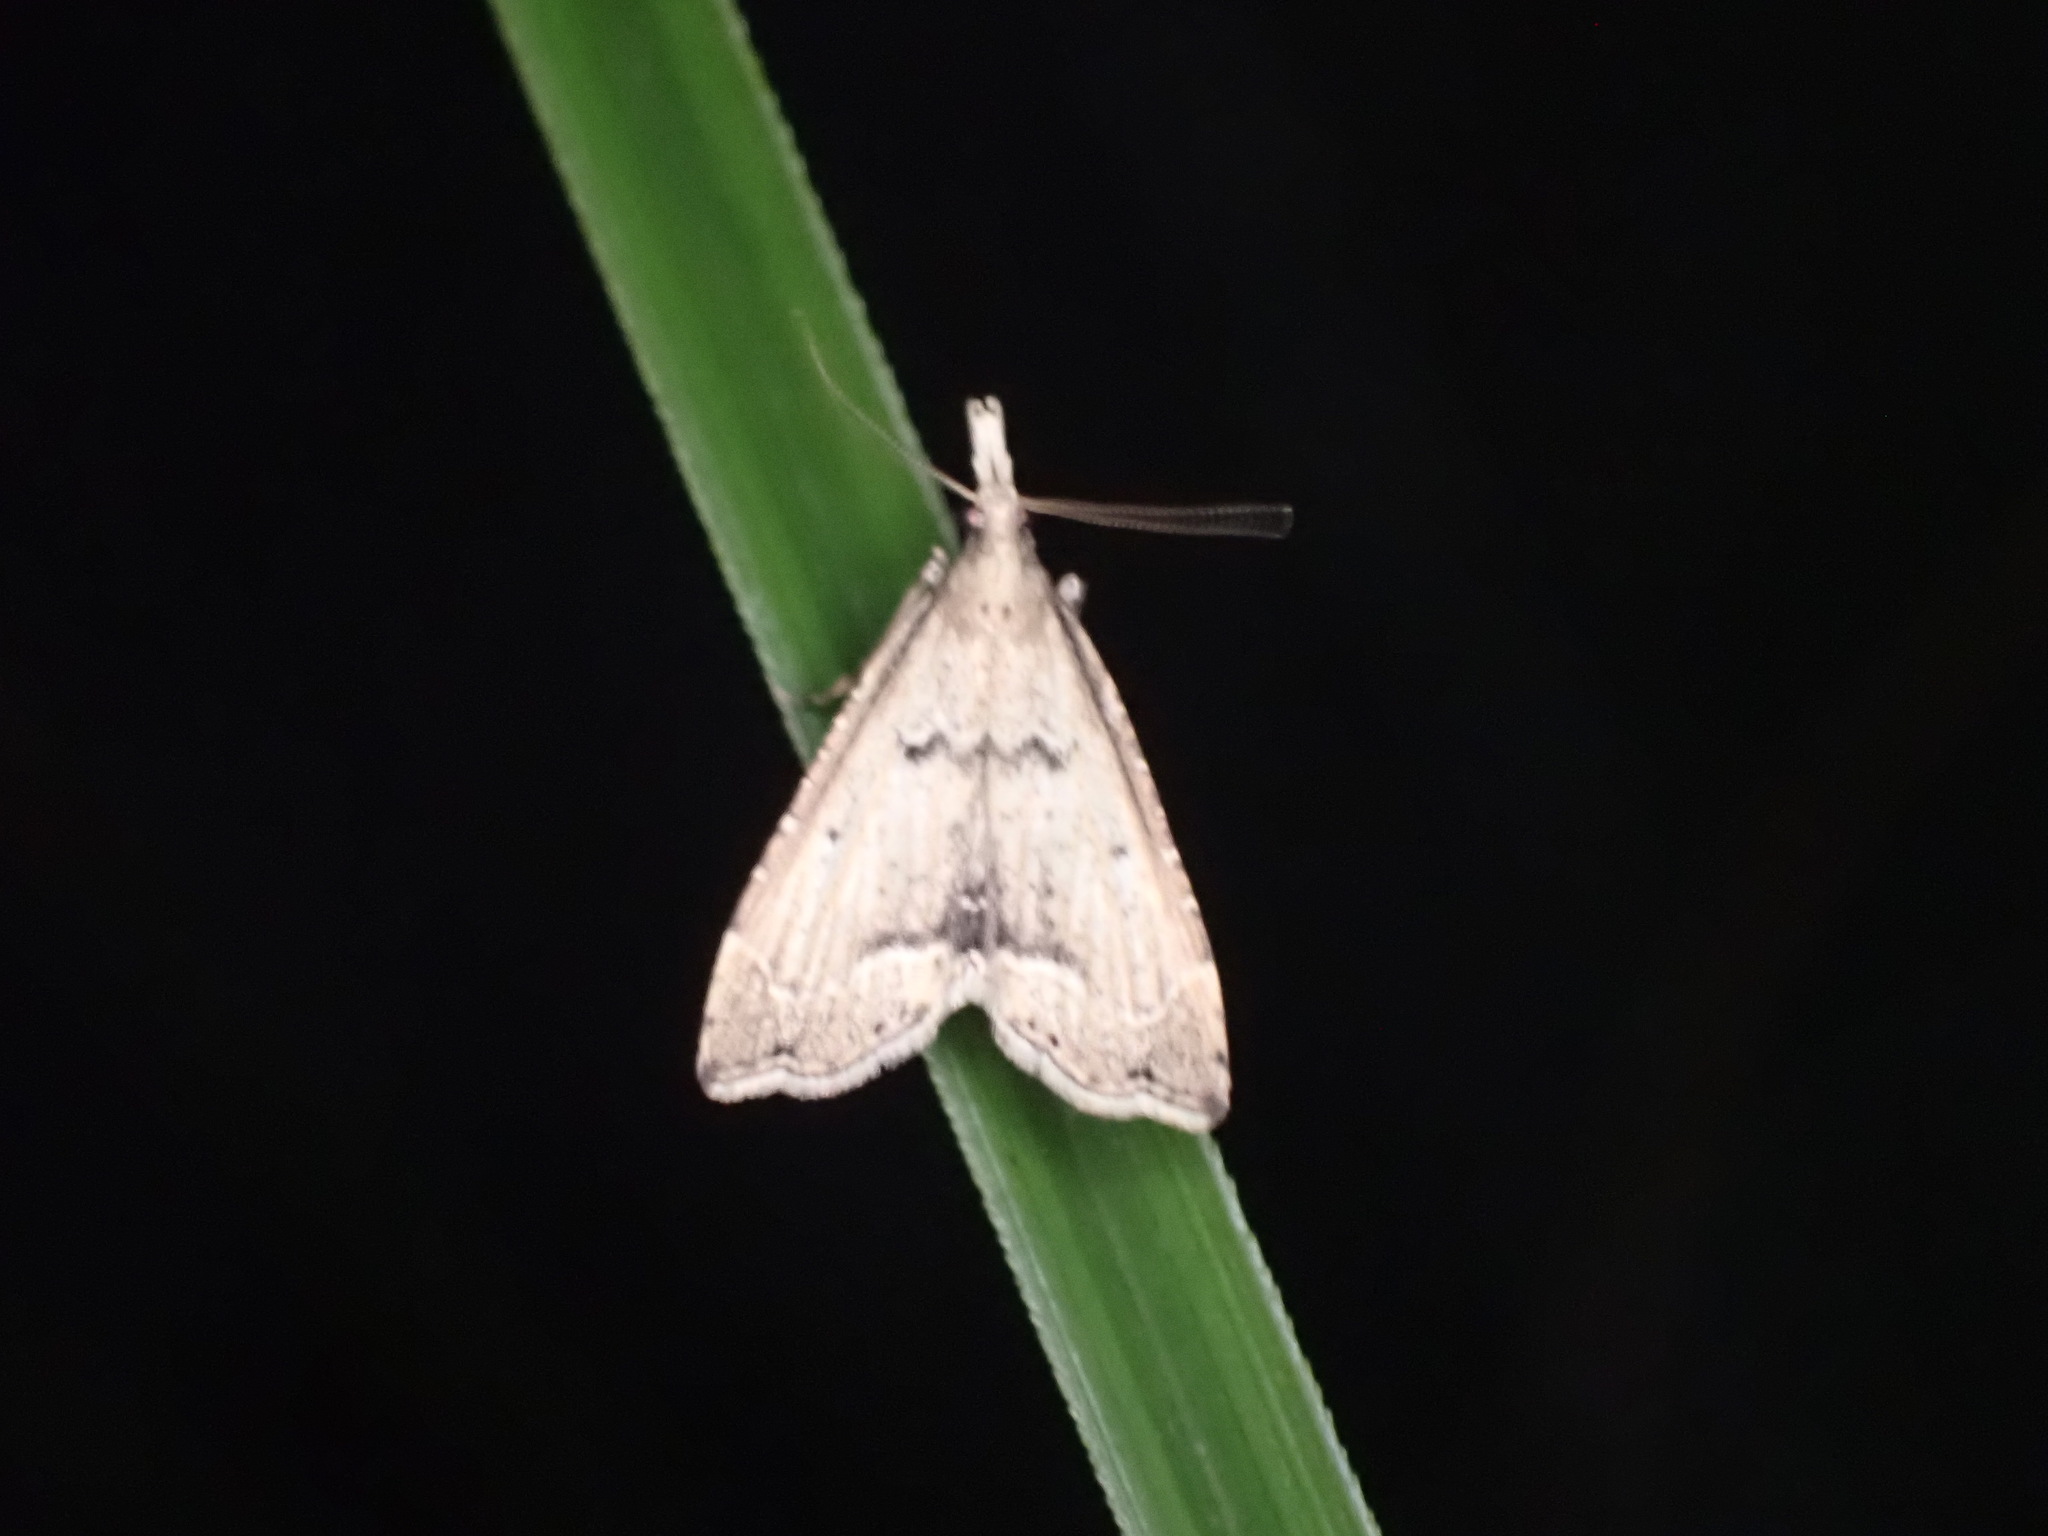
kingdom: Animalia
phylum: Arthropoda
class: Insecta
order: Lepidoptera
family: Crambidae
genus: Diplopseustis
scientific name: Diplopseustis perieresalis
